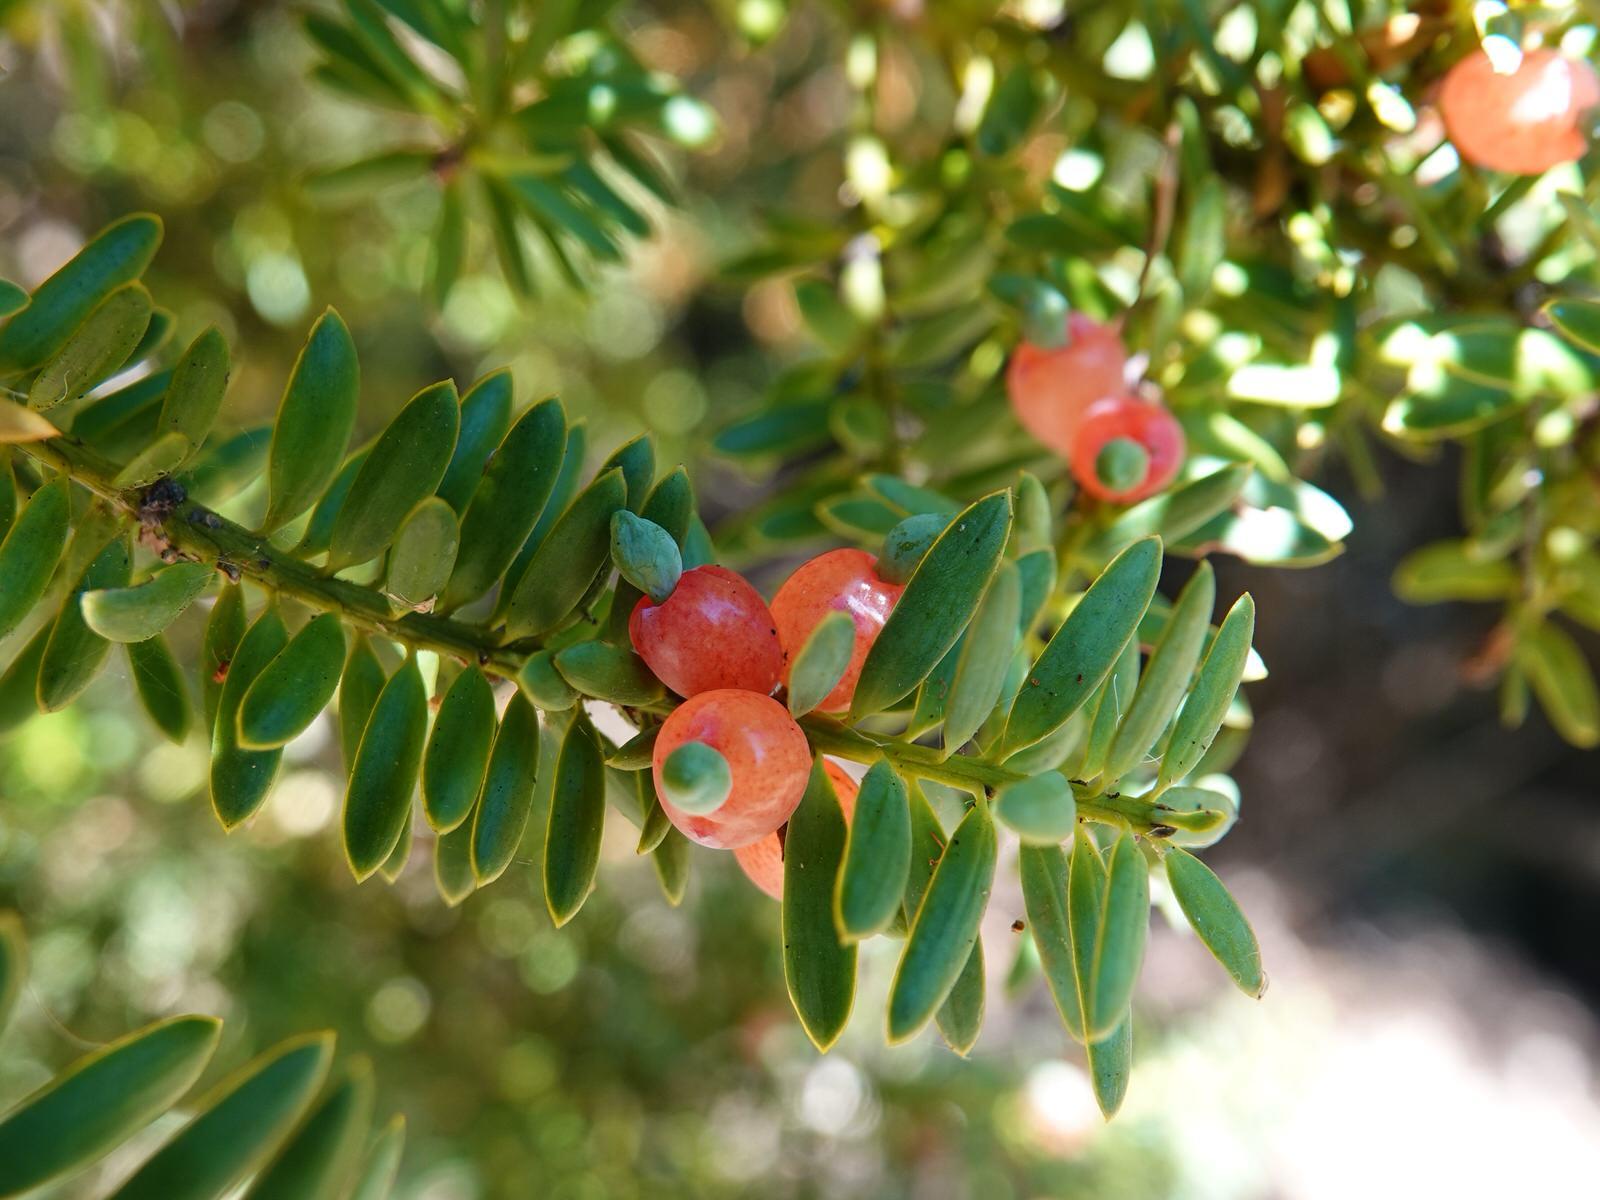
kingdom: Plantae
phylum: Tracheophyta
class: Pinopsida
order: Pinales
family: Podocarpaceae
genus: Podocarpus
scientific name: Podocarpus totara
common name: Totara
